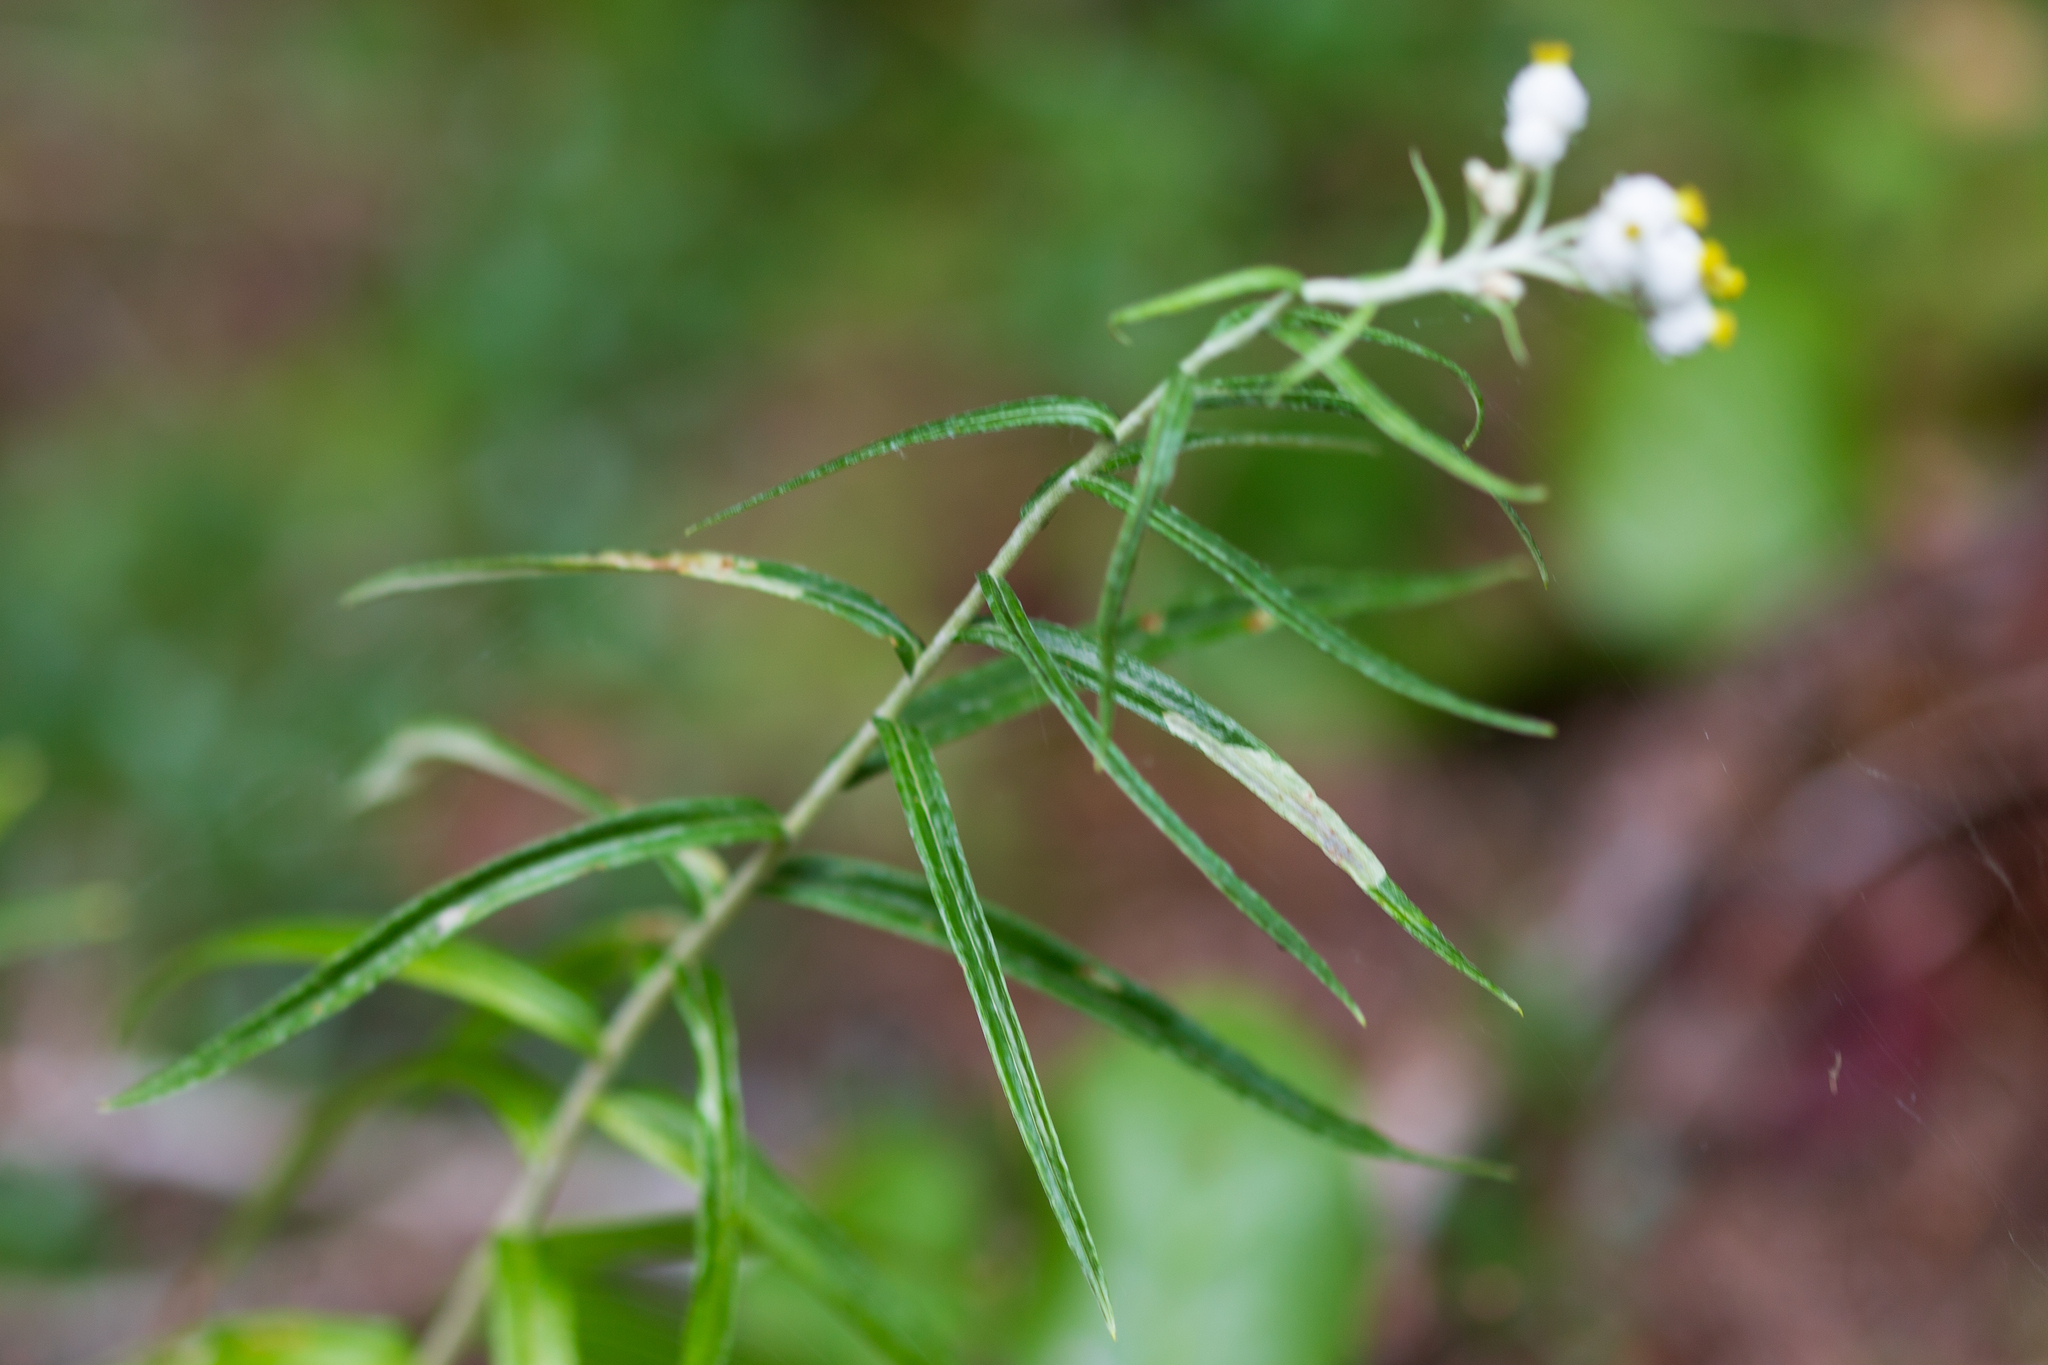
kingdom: Plantae
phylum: Tracheophyta
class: Magnoliopsida
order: Asterales
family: Asteraceae
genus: Anaphalis
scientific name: Anaphalis margaritacea
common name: Pearly everlasting
